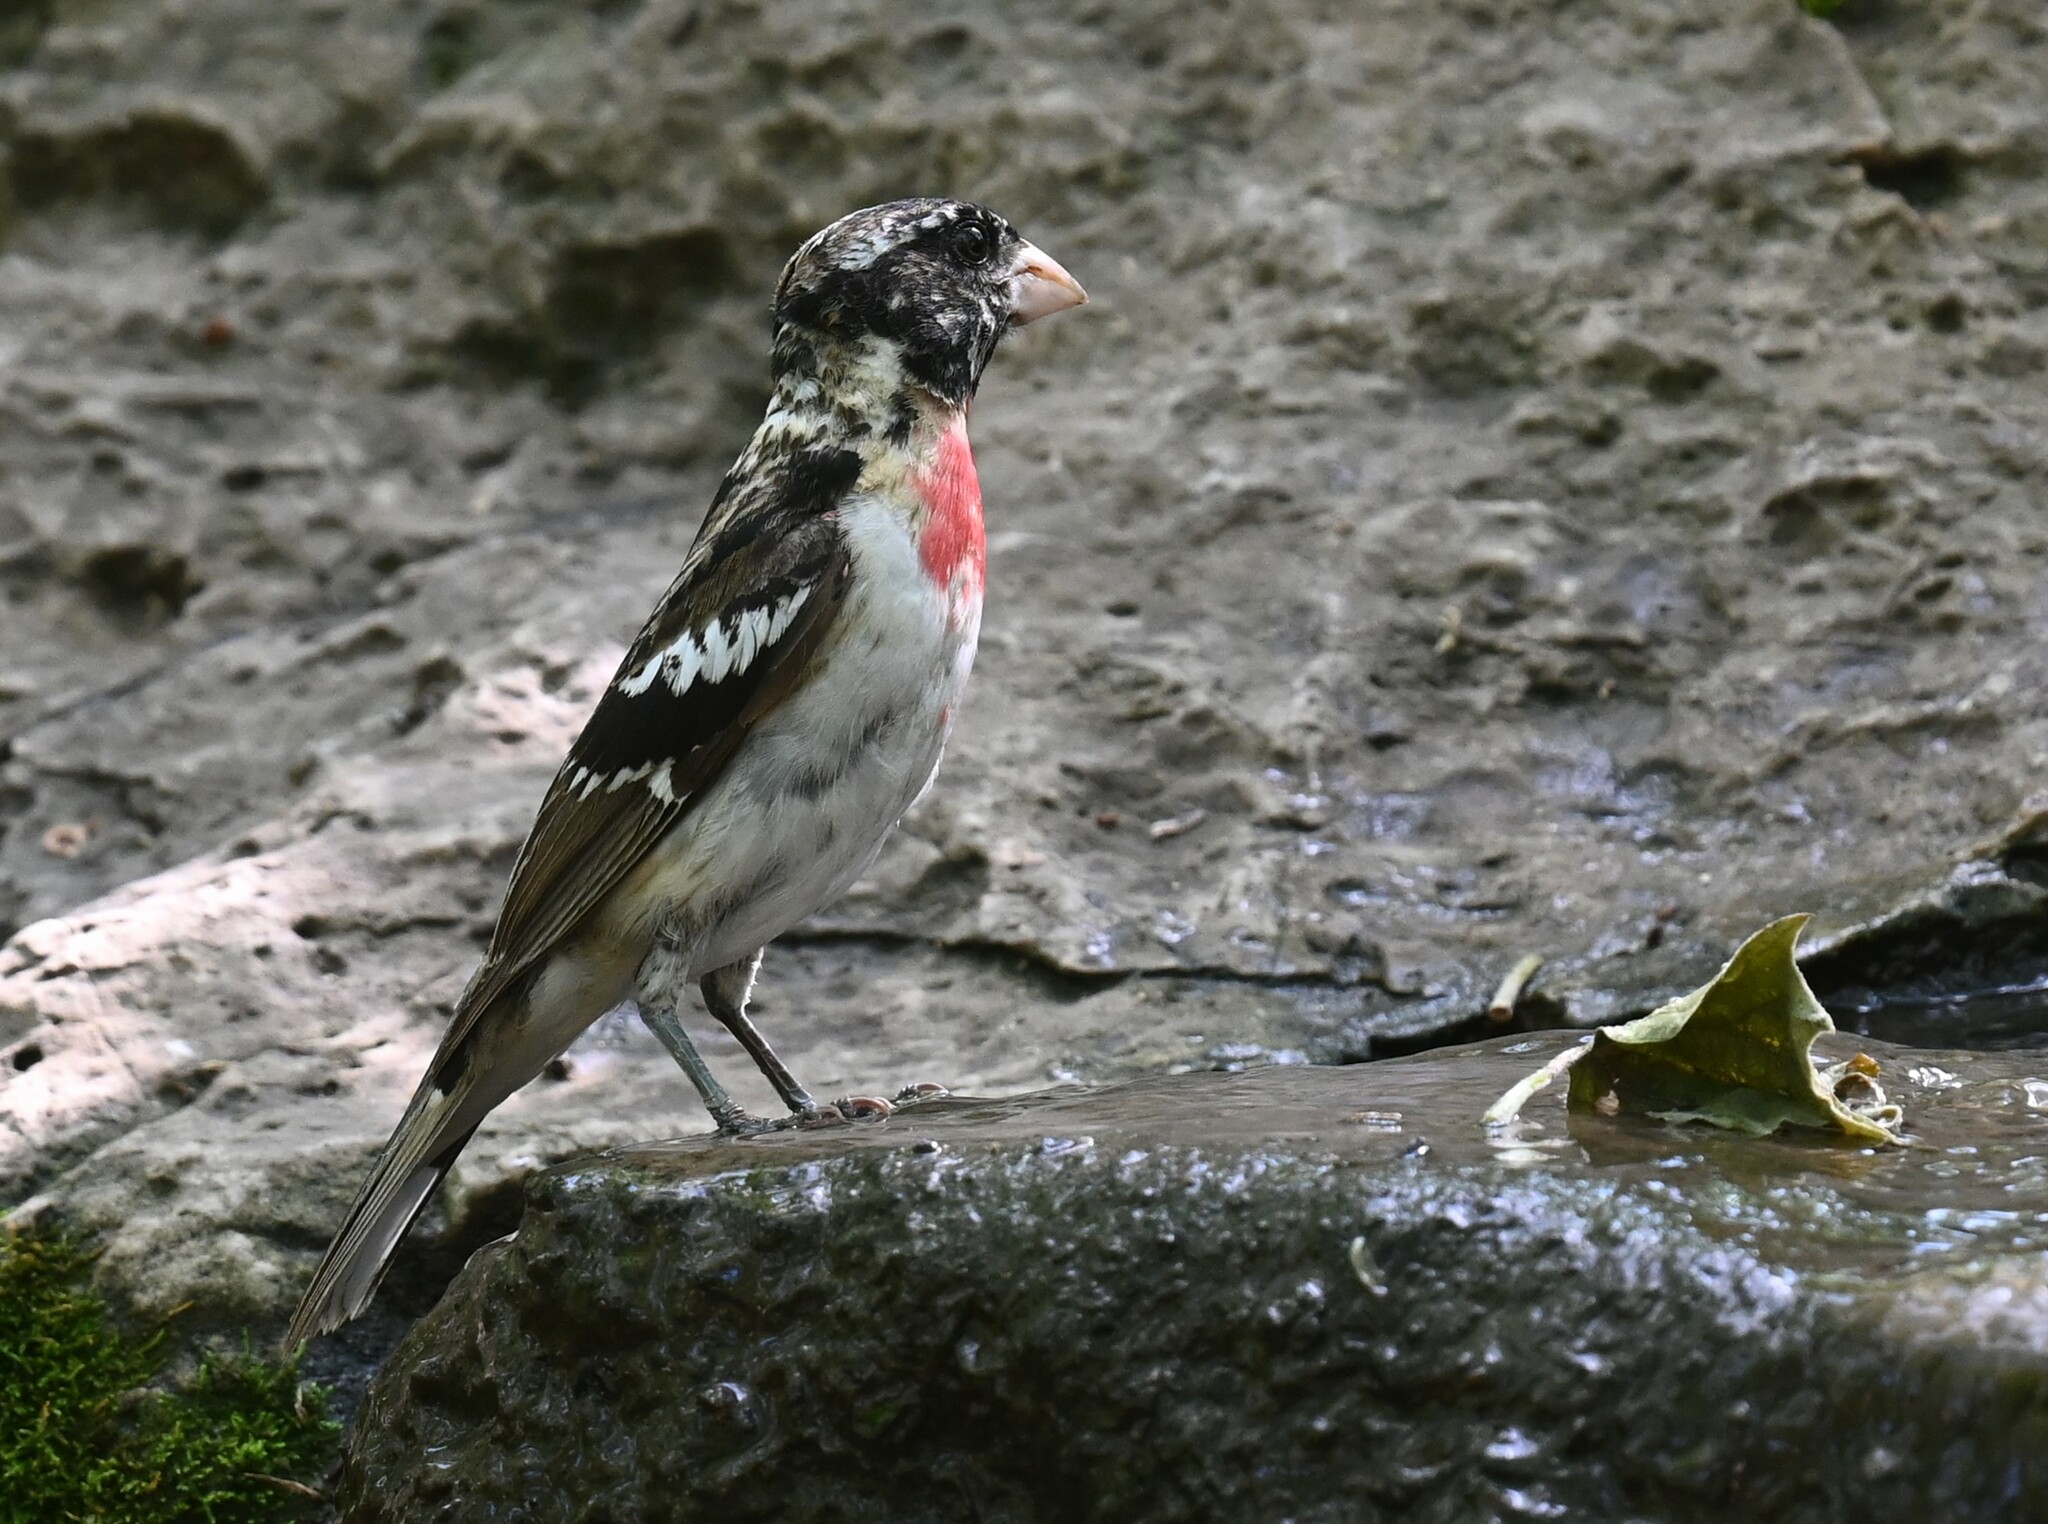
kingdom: Animalia
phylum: Chordata
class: Aves
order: Passeriformes
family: Cardinalidae
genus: Pheucticus
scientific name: Pheucticus ludovicianus
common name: Rose-breasted grosbeak
